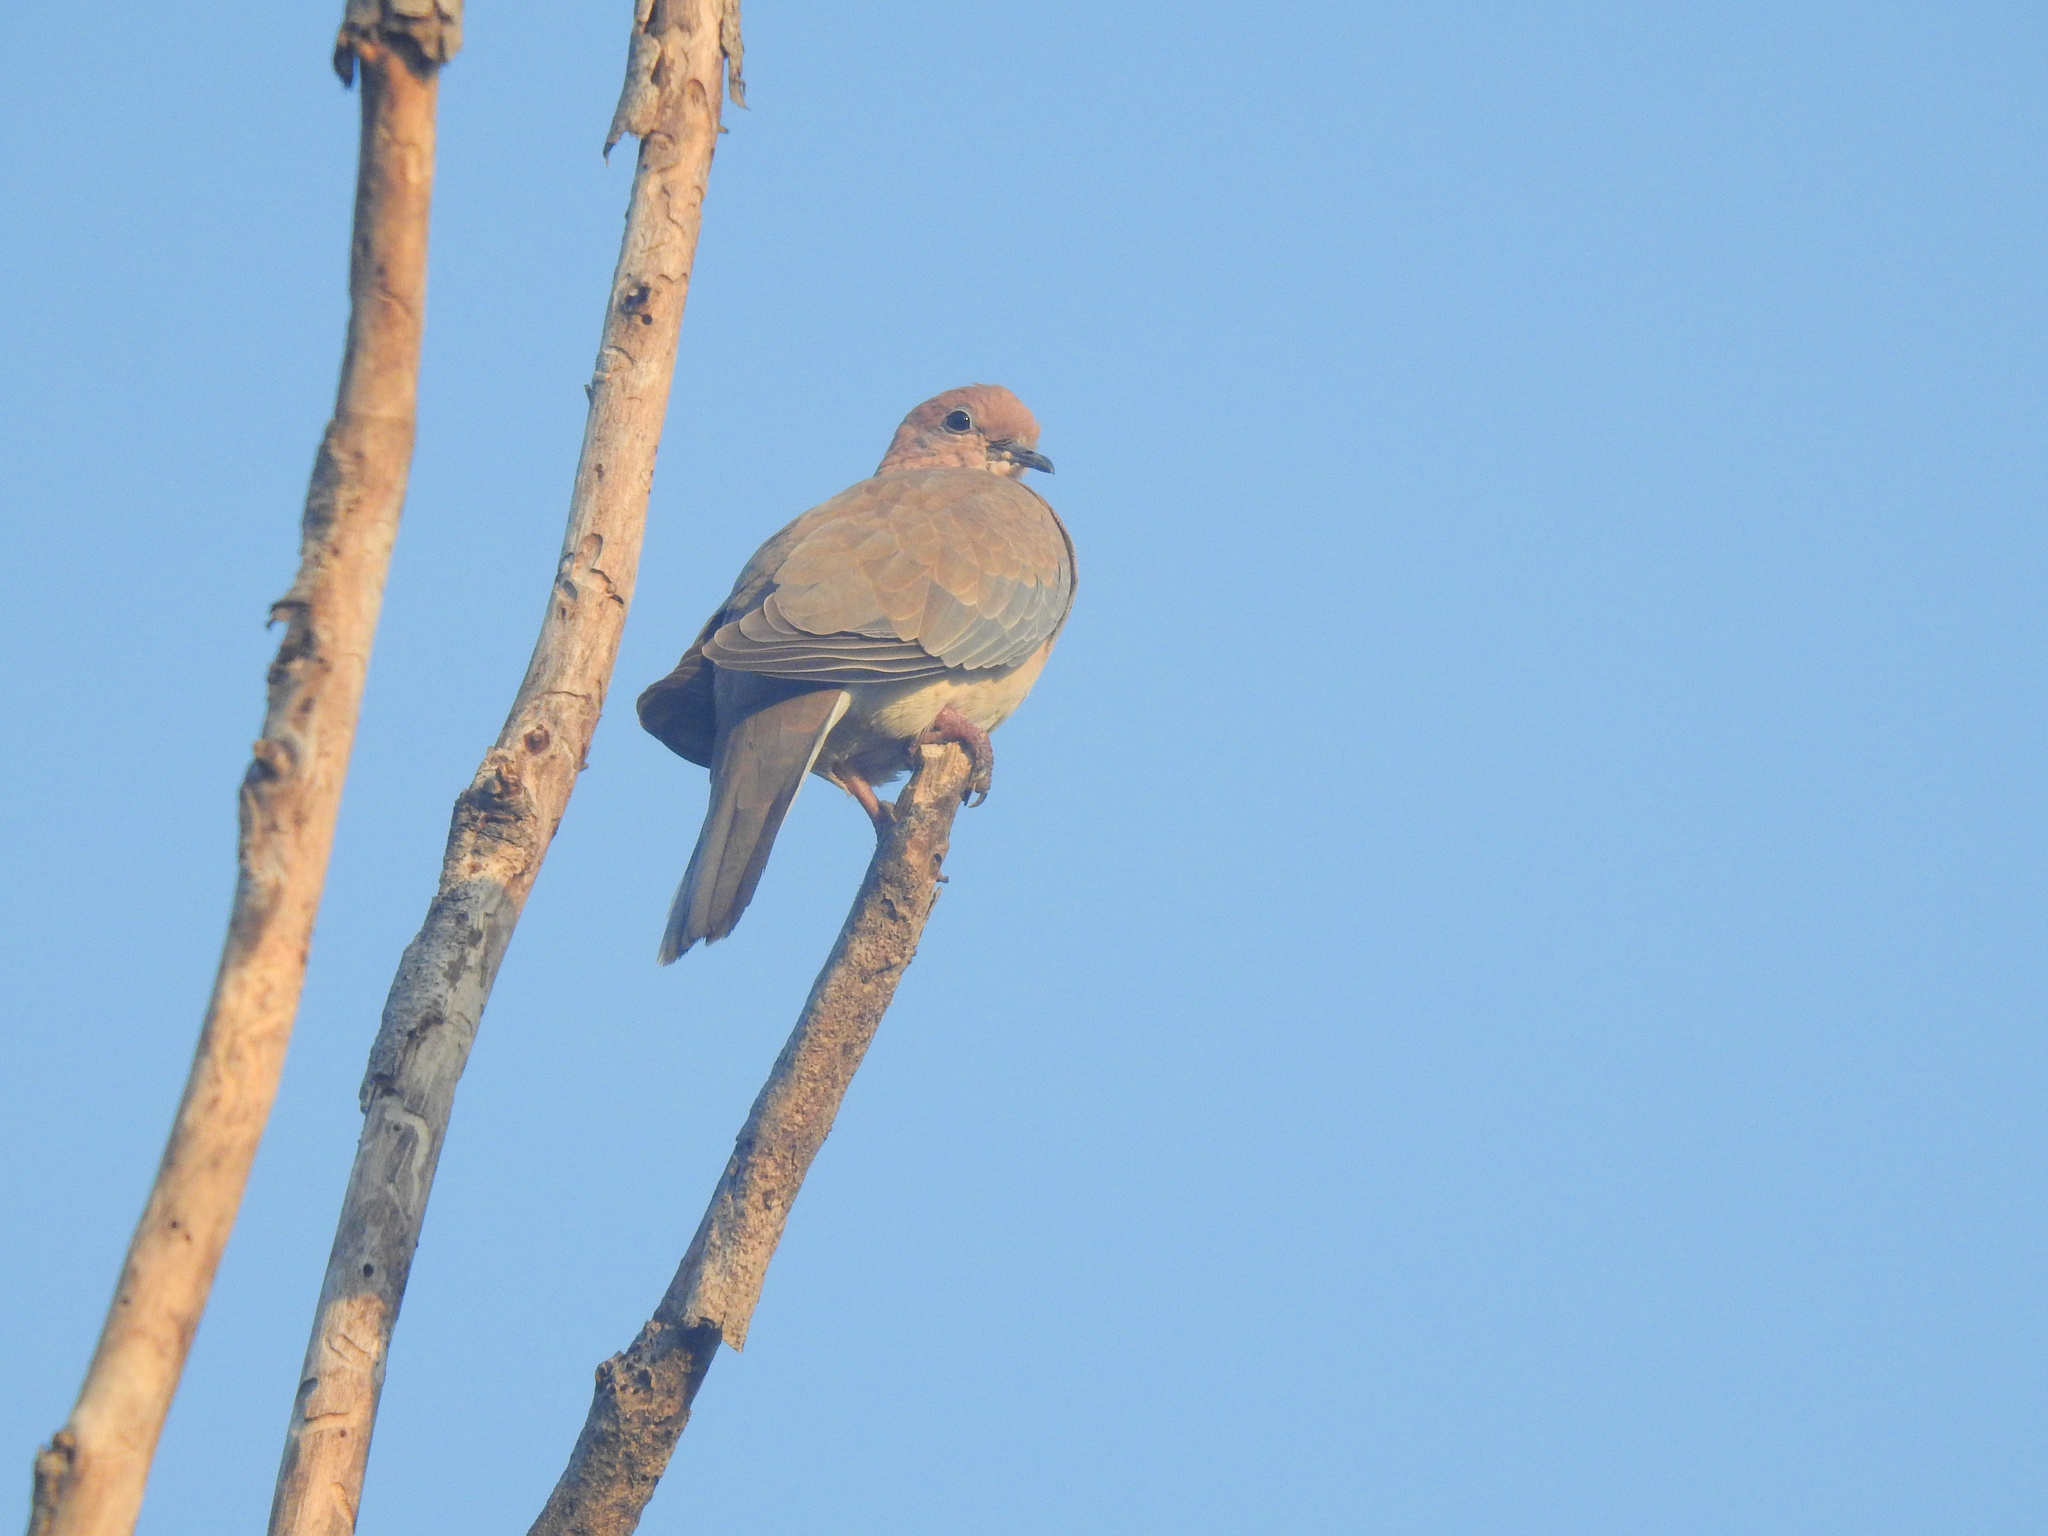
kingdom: Animalia
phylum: Chordata
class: Aves
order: Columbiformes
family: Columbidae
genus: Spilopelia
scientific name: Spilopelia senegalensis
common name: Laughing dove
